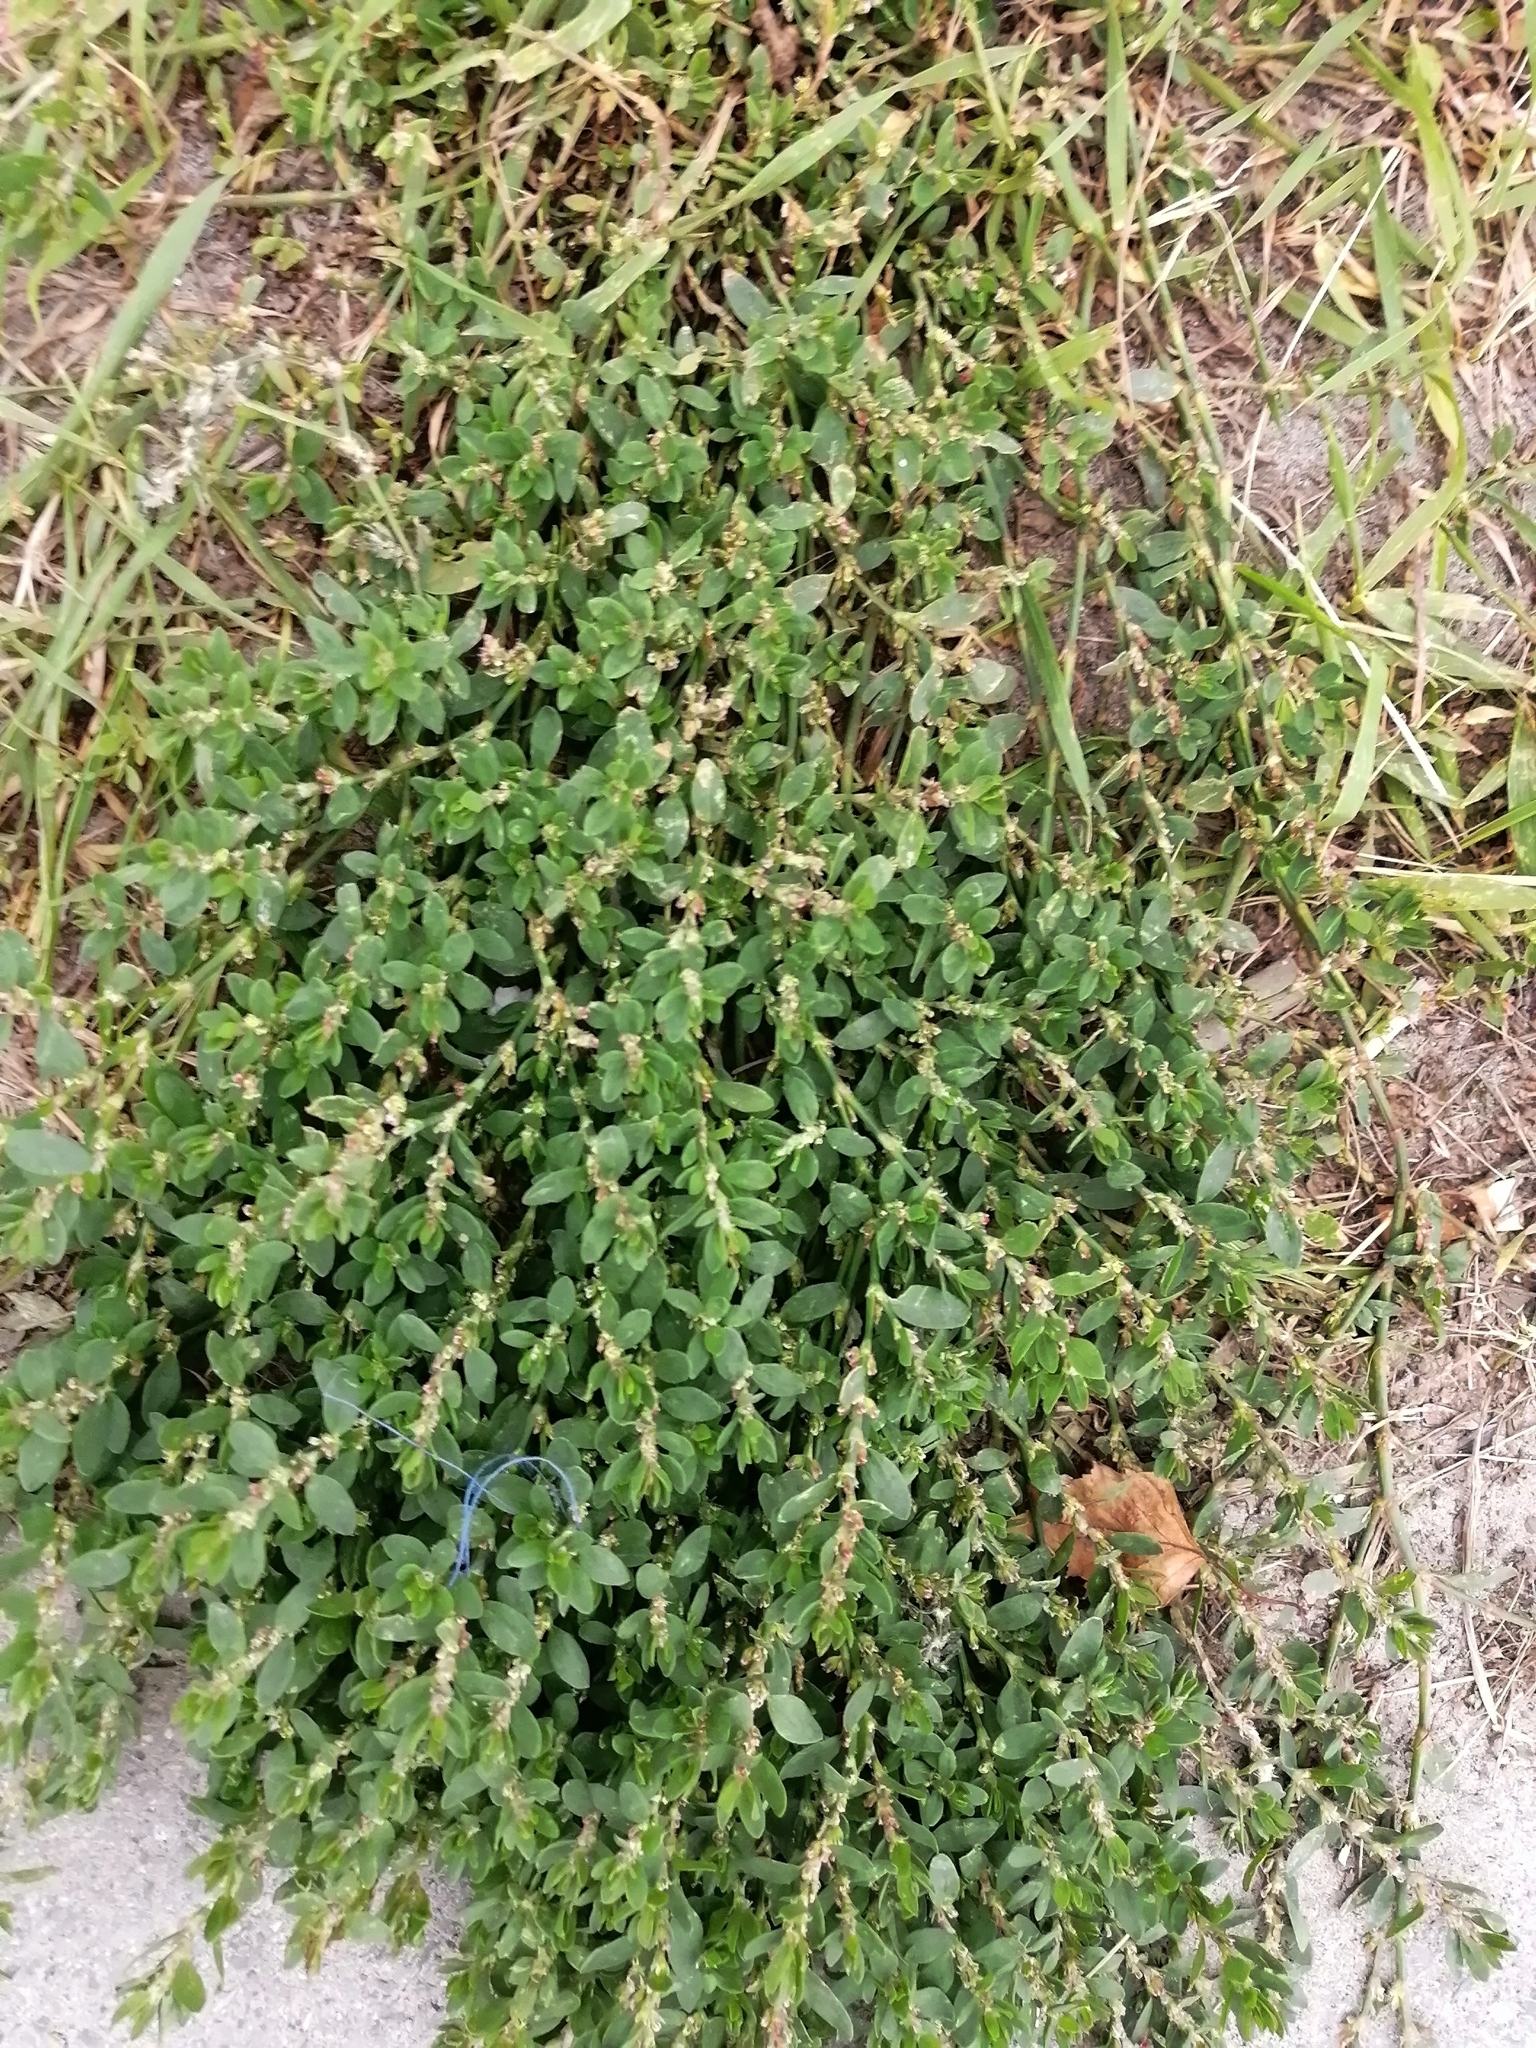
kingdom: Plantae
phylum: Tracheophyta
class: Magnoliopsida
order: Caryophyllales
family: Polygonaceae
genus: Polygonum
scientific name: Polygonum
